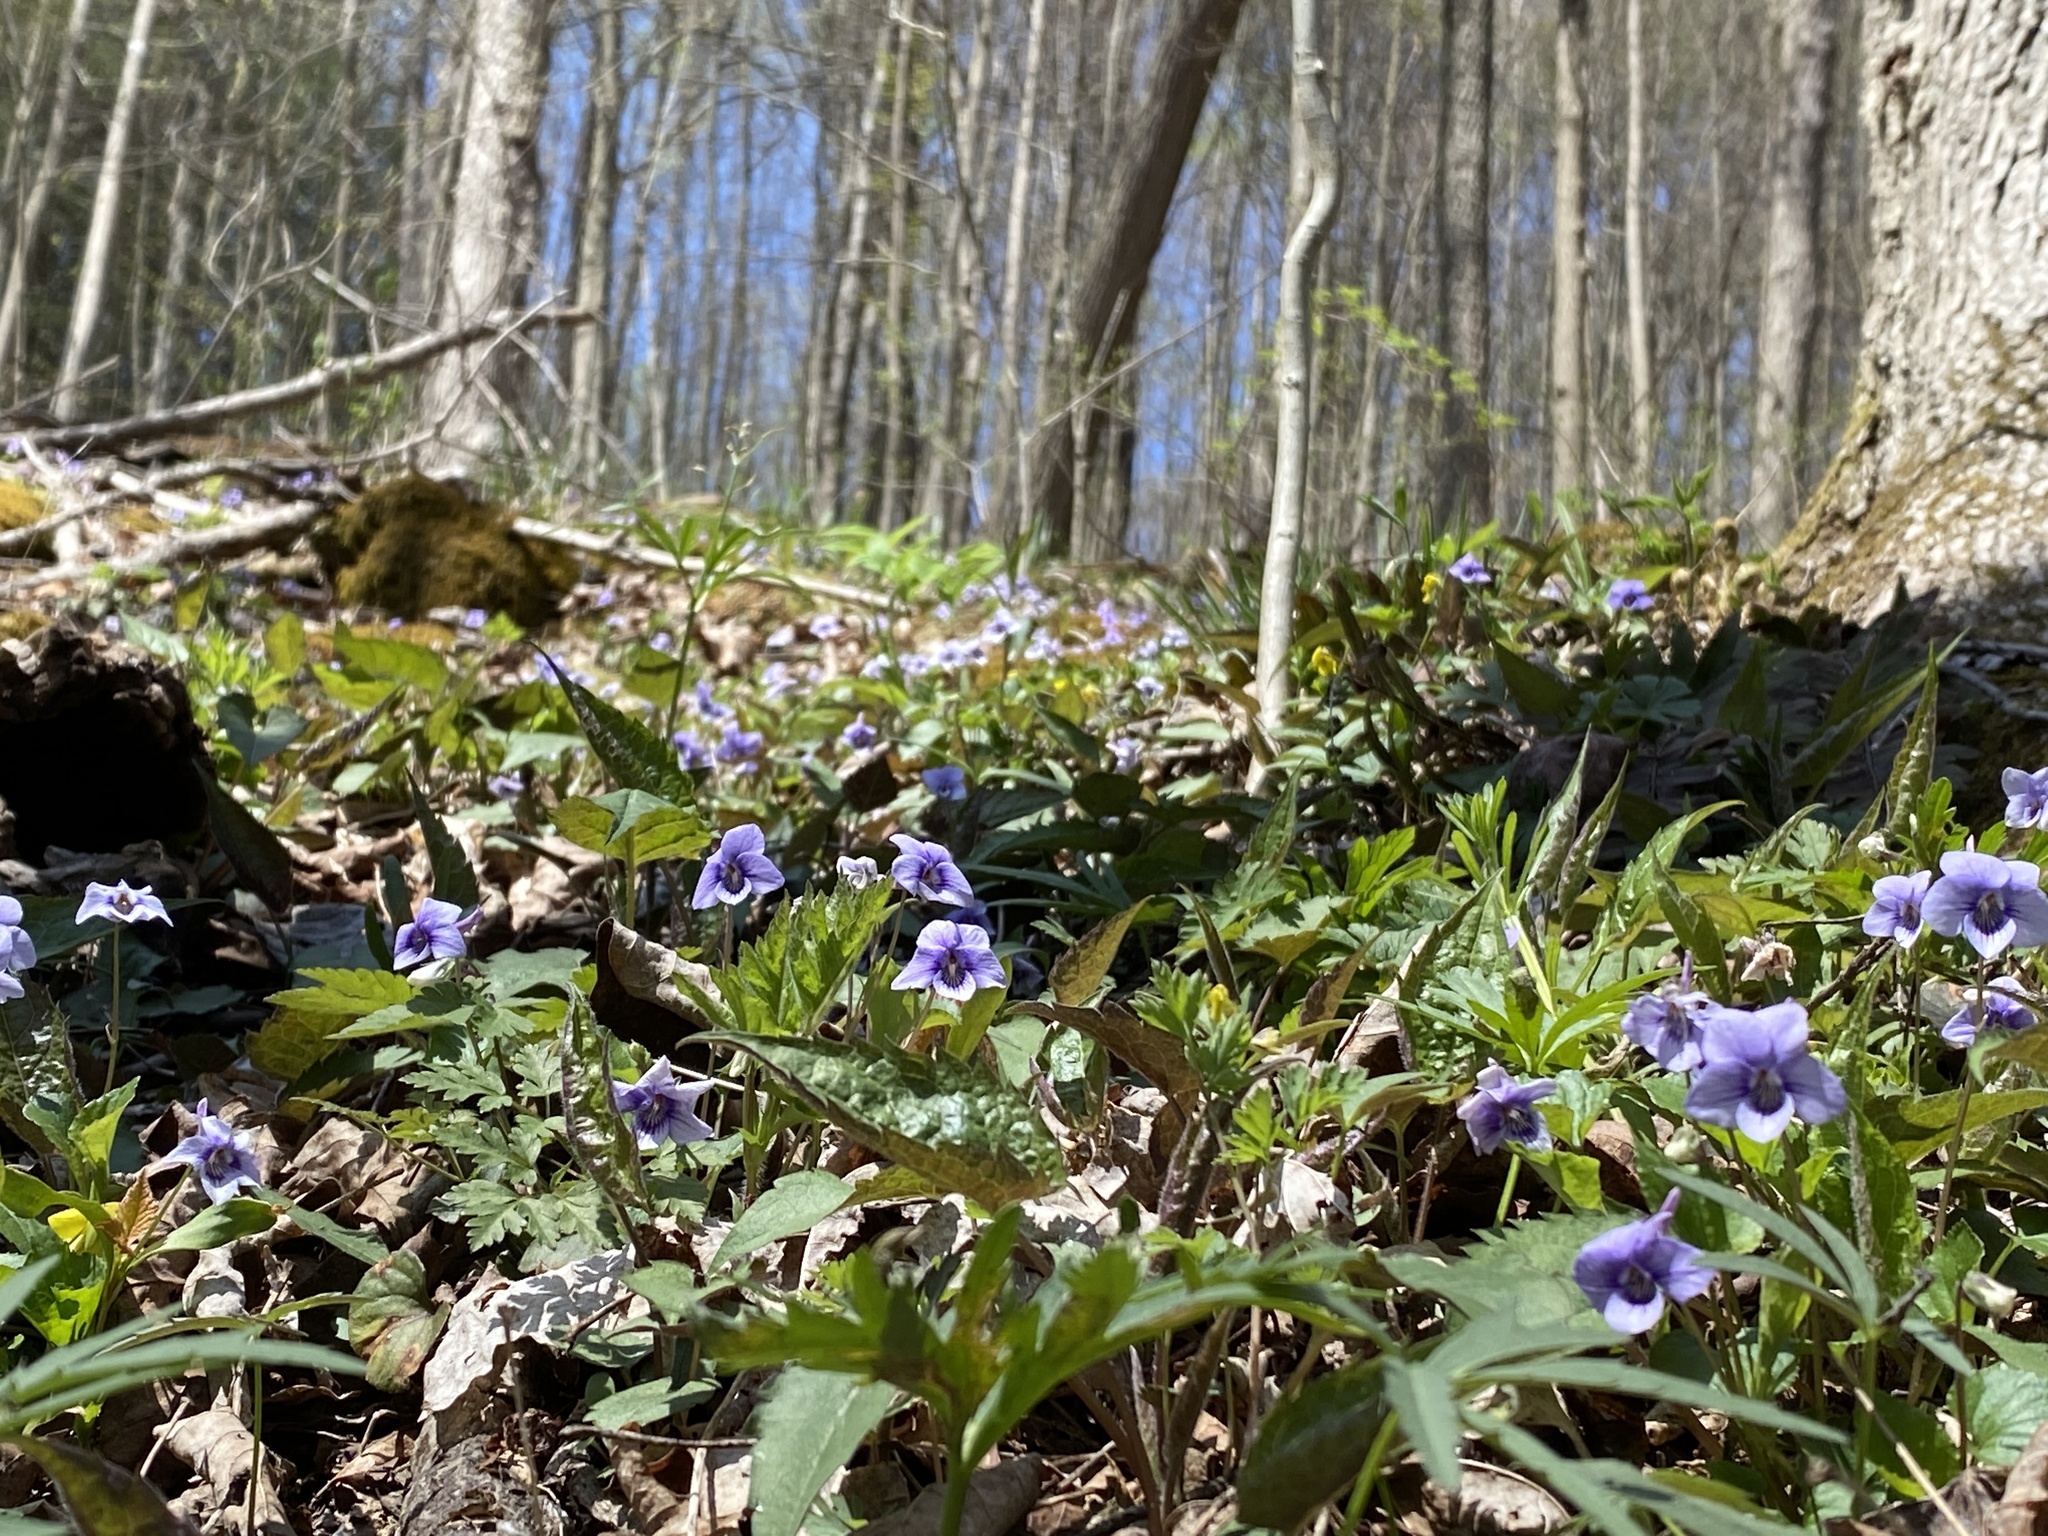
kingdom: Plantae
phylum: Tracheophyta
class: Magnoliopsida
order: Malpighiales
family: Violaceae
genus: Viola
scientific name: Viola rostrata
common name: Long-spur violet
